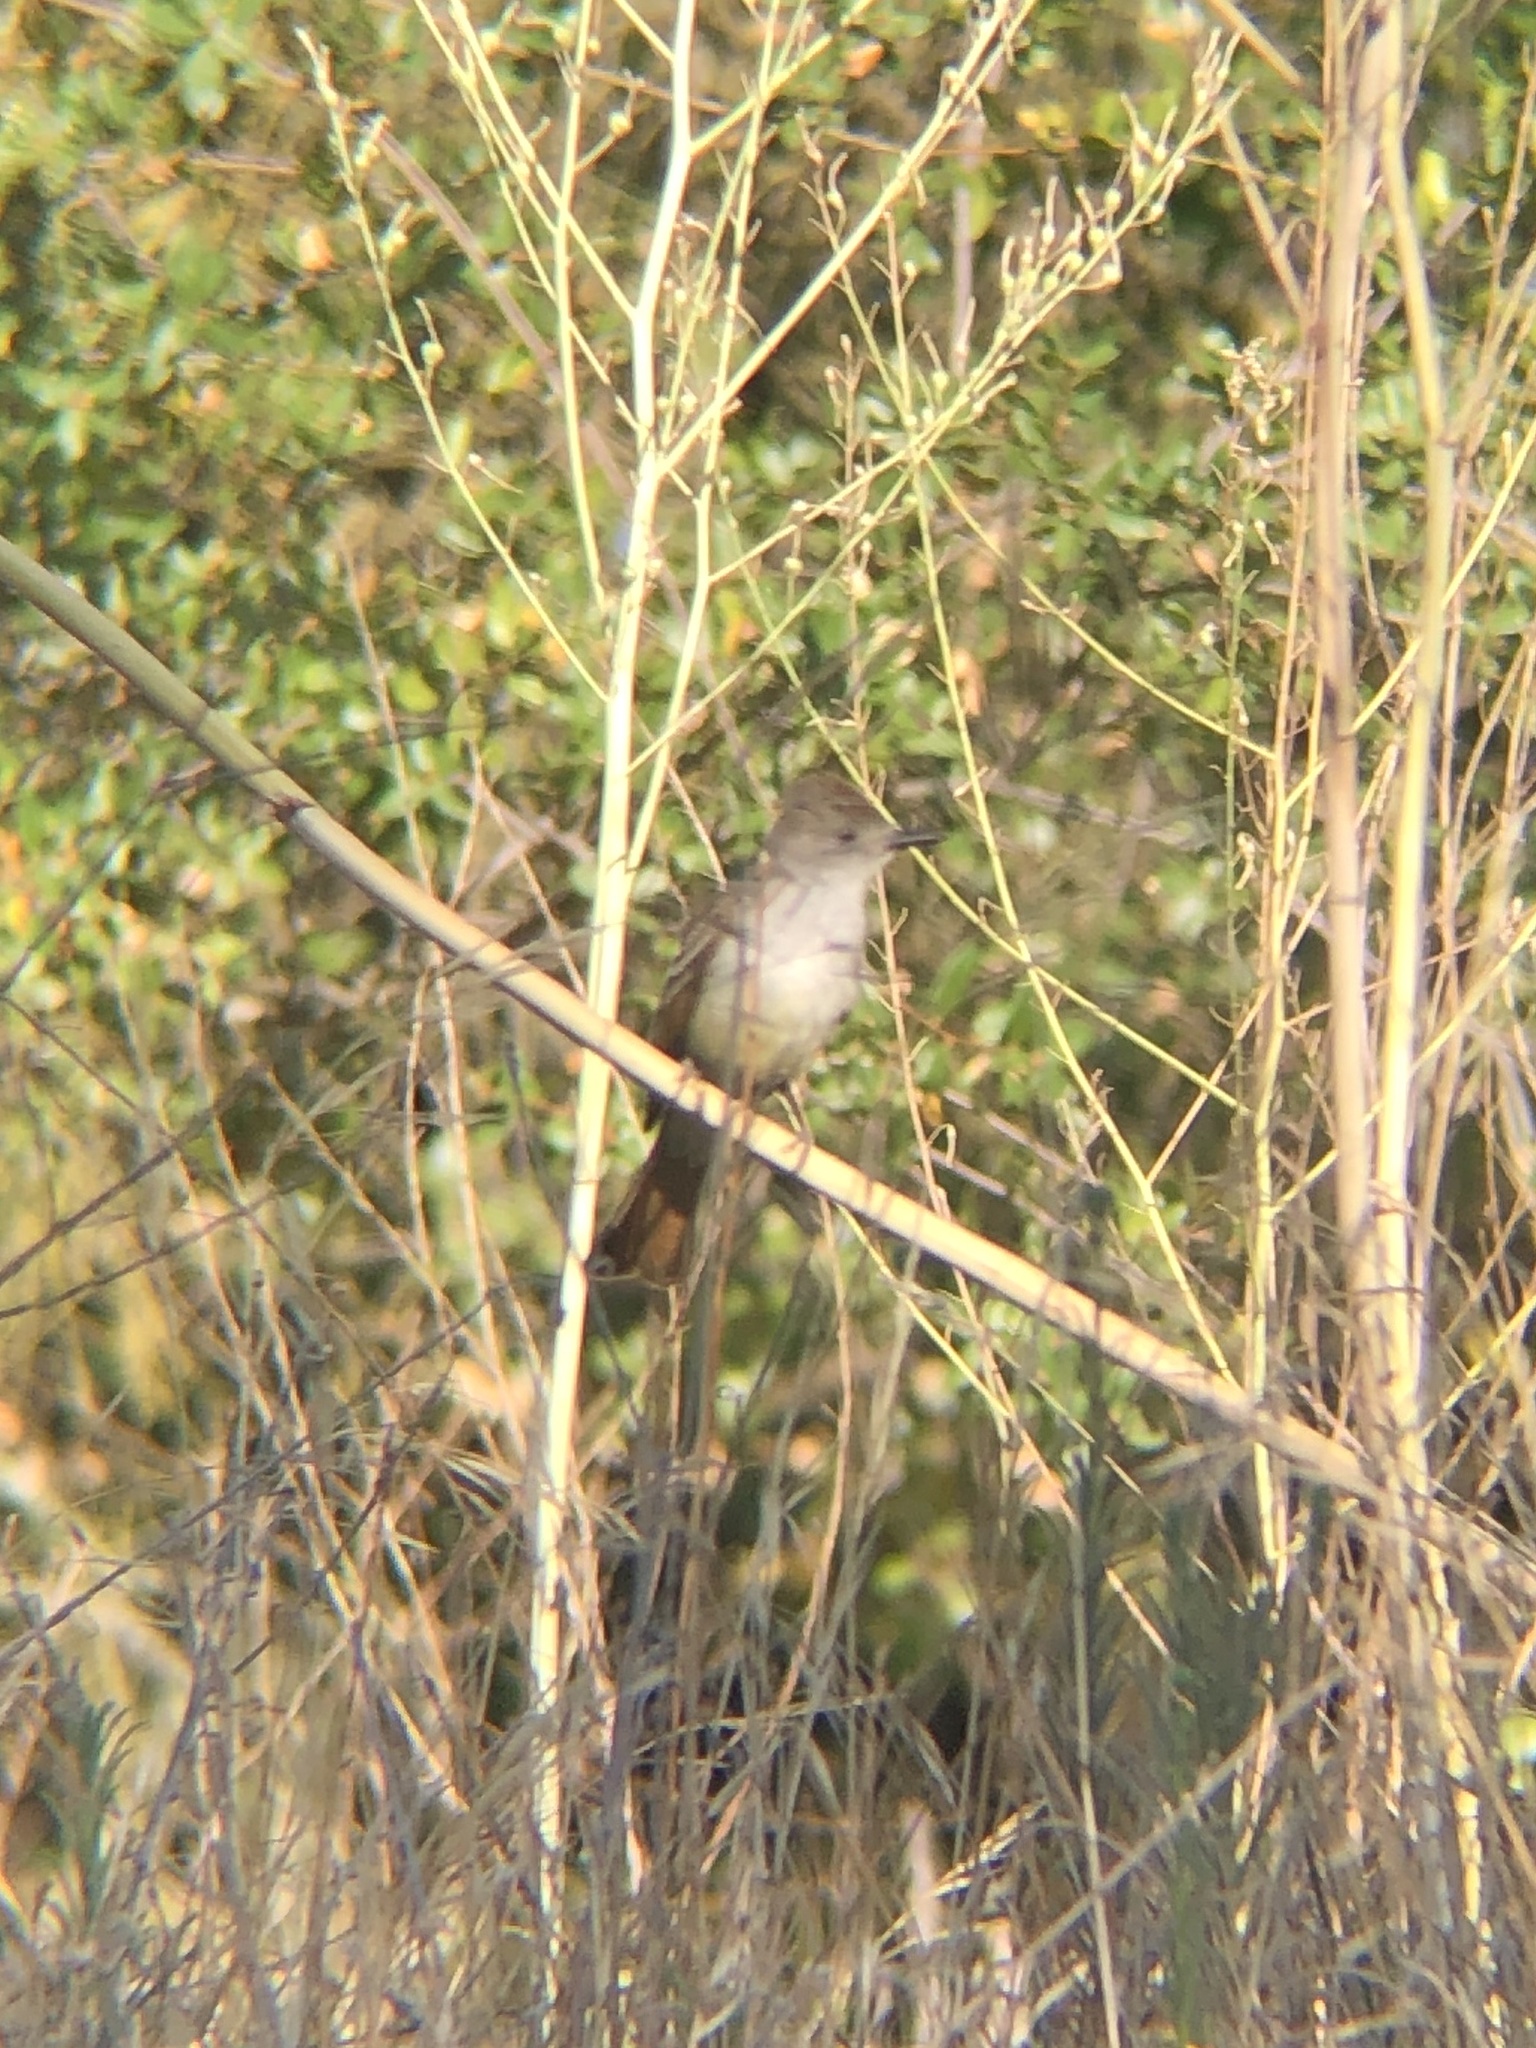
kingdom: Animalia
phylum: Chordata
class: Aves
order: Passeriformes
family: Tyrannidae
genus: Myiarchus
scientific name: Myiarchus cinerascens
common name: Ash-throated flycatcher
